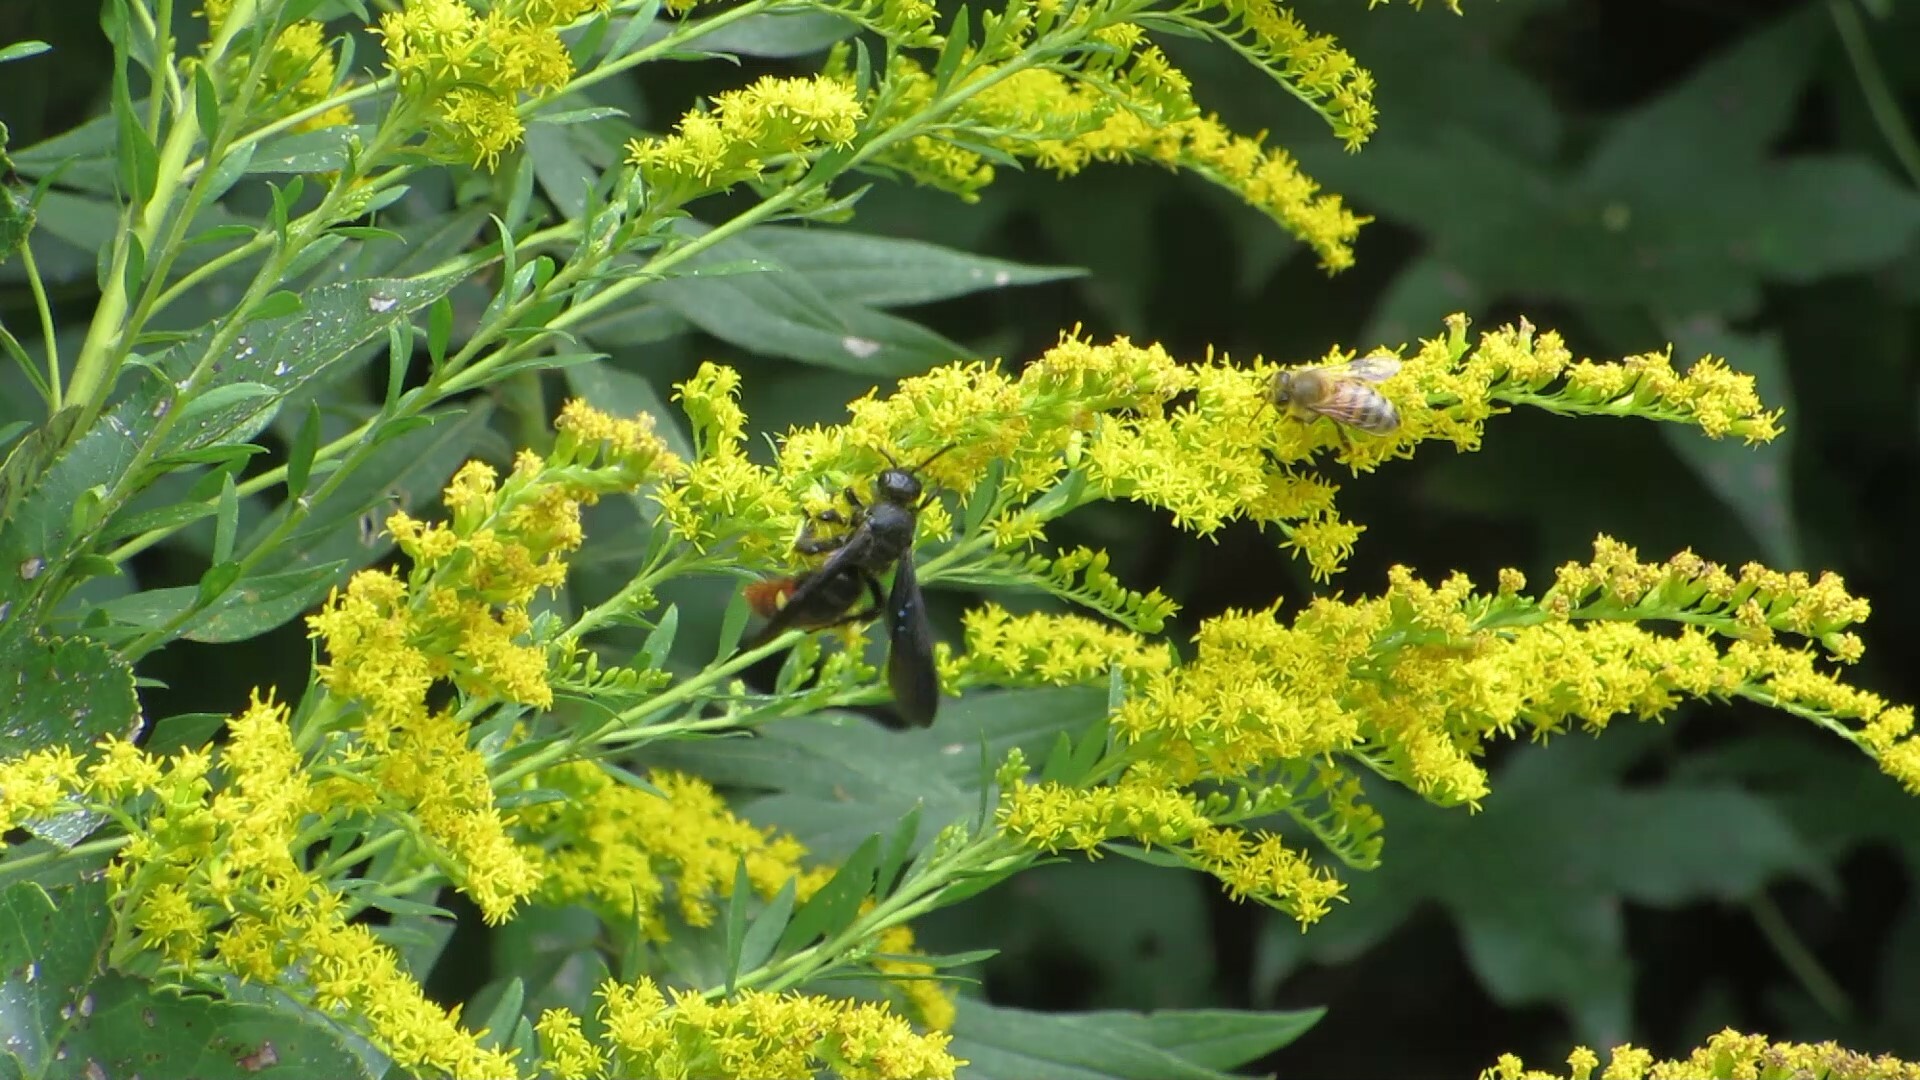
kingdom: Animalia
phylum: Arthropoda
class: Insecta
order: Hymenoptera
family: Apidae
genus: Apis
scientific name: Apis mellifera
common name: Honey bee
